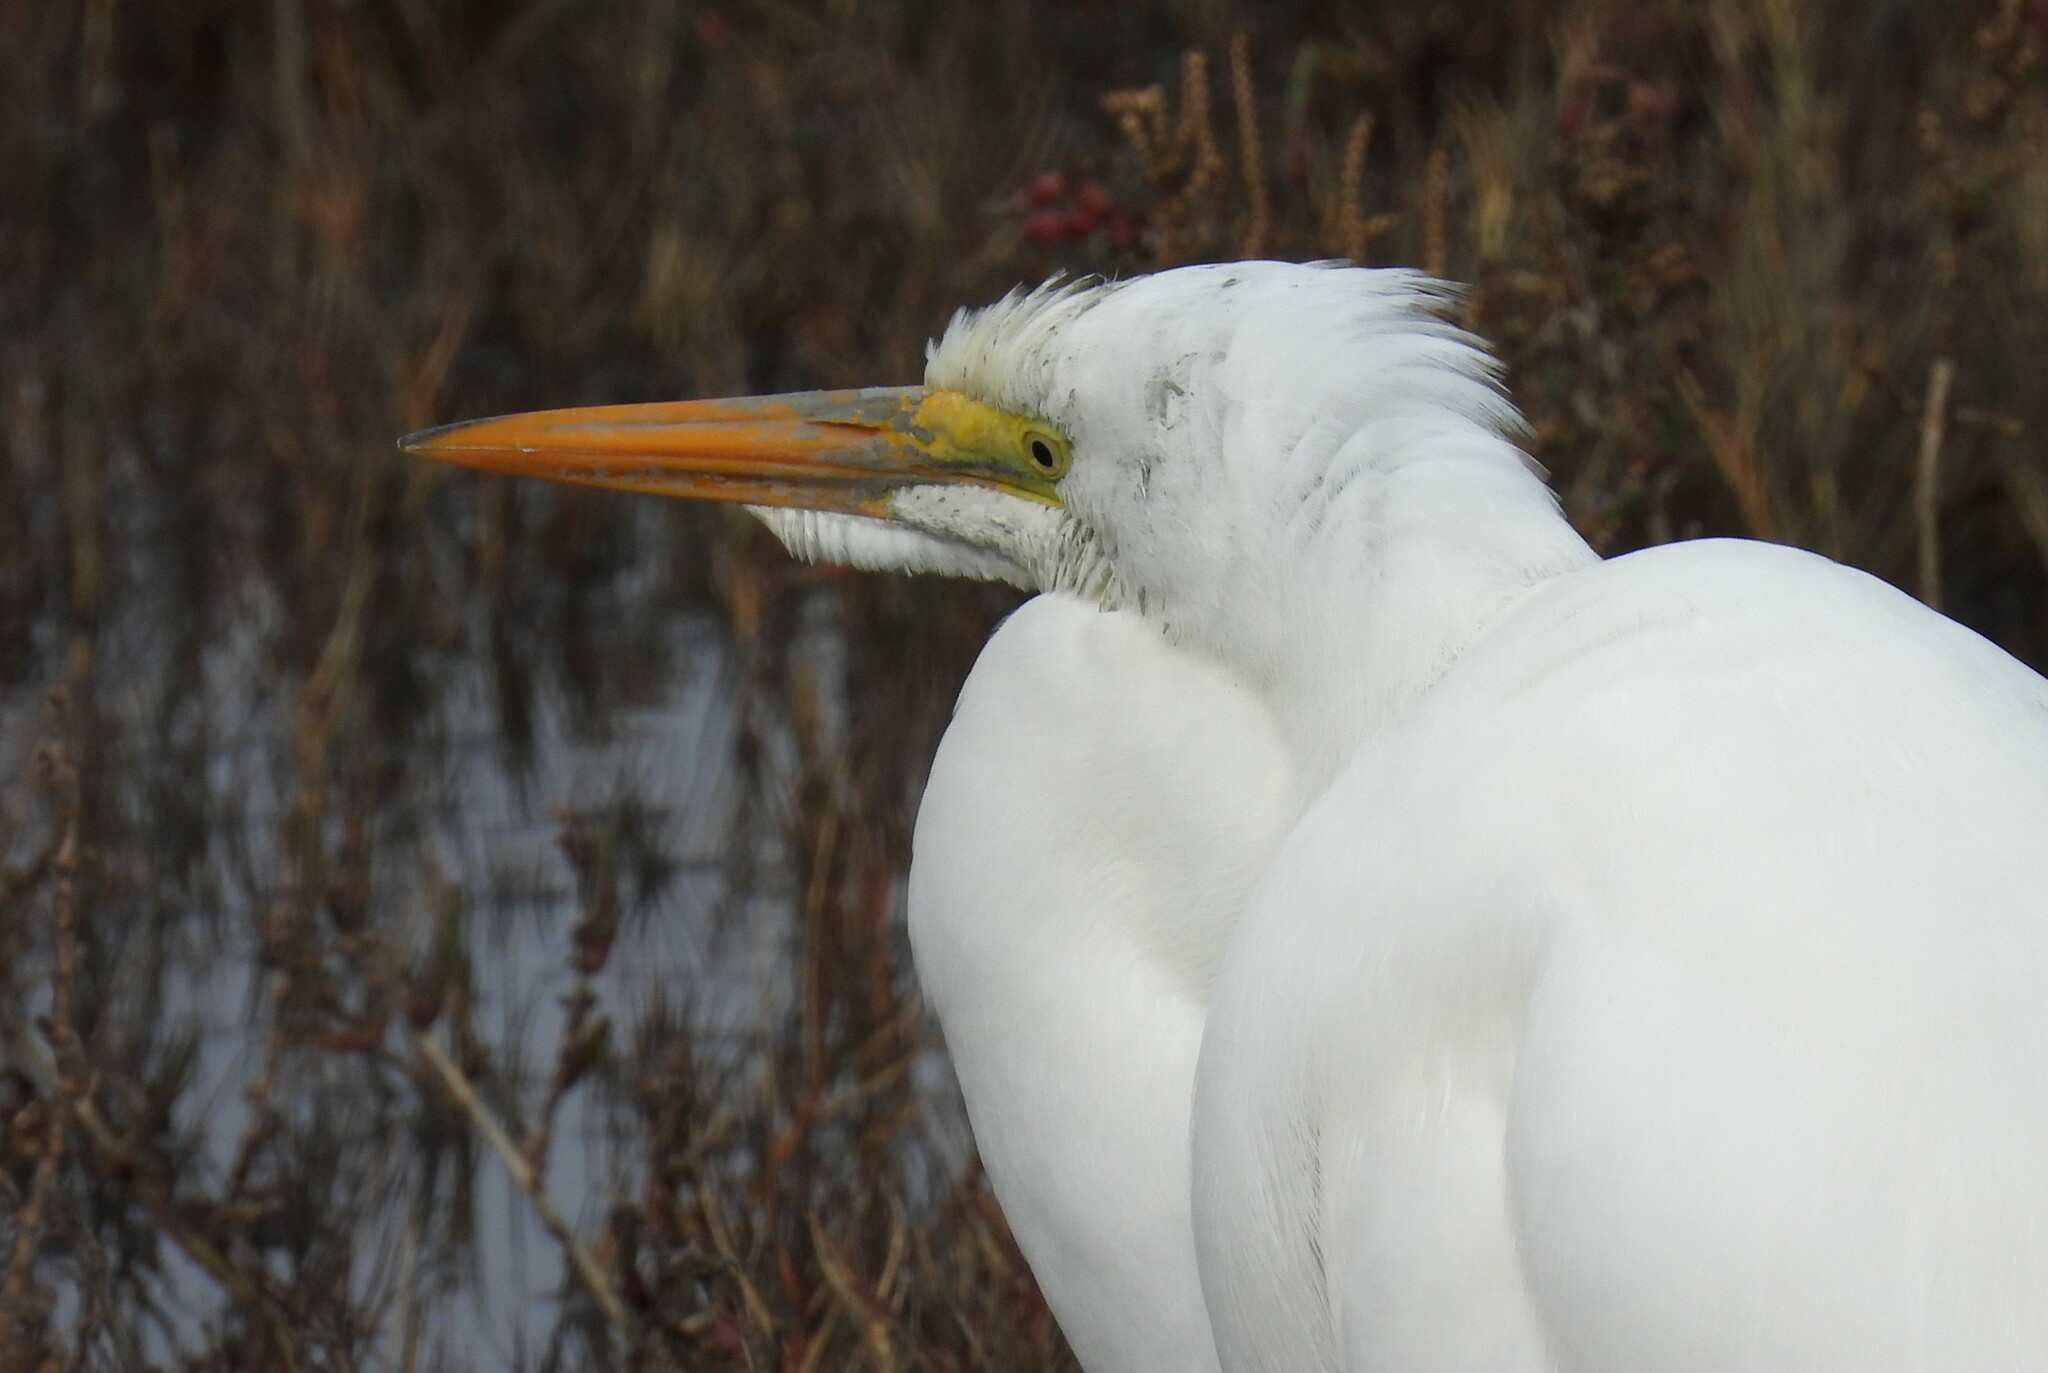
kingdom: Animalia
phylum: Chordata
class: Aves
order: Pelecaniformes
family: Ardeidae
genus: Ardea
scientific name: Ardea alba
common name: Great egret
